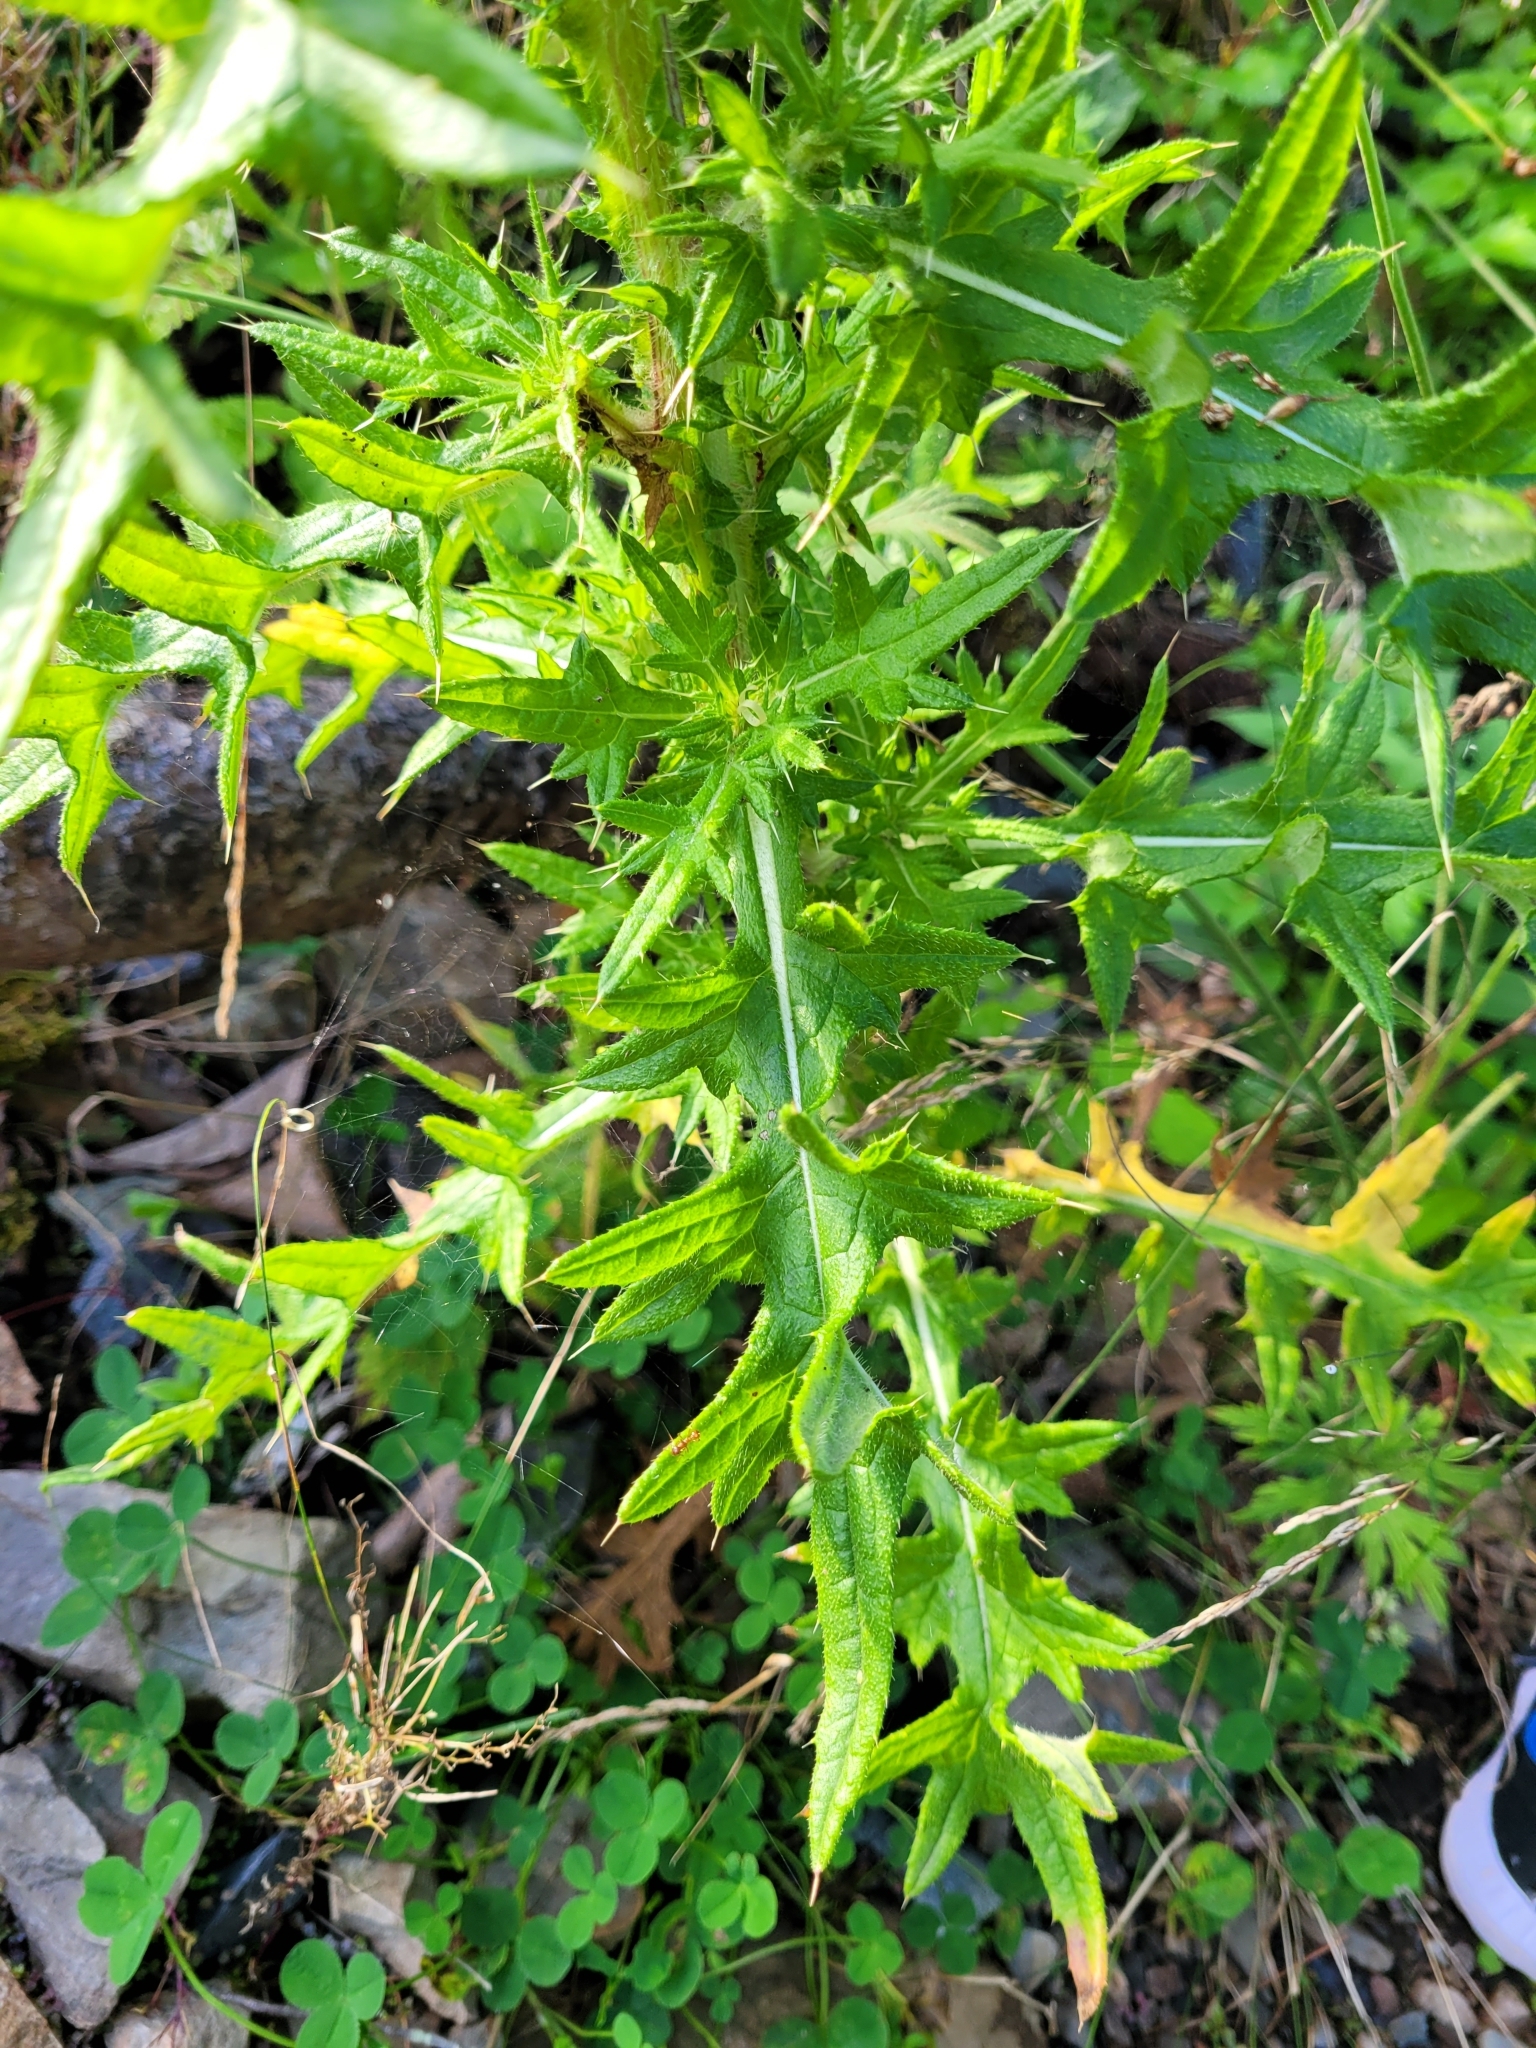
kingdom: Plantae
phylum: Tracheophyta
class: Magnoliopsida
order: Asterales
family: Asteraceae
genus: Cirsium
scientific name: Cirsium vulgare
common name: Bull thistle
